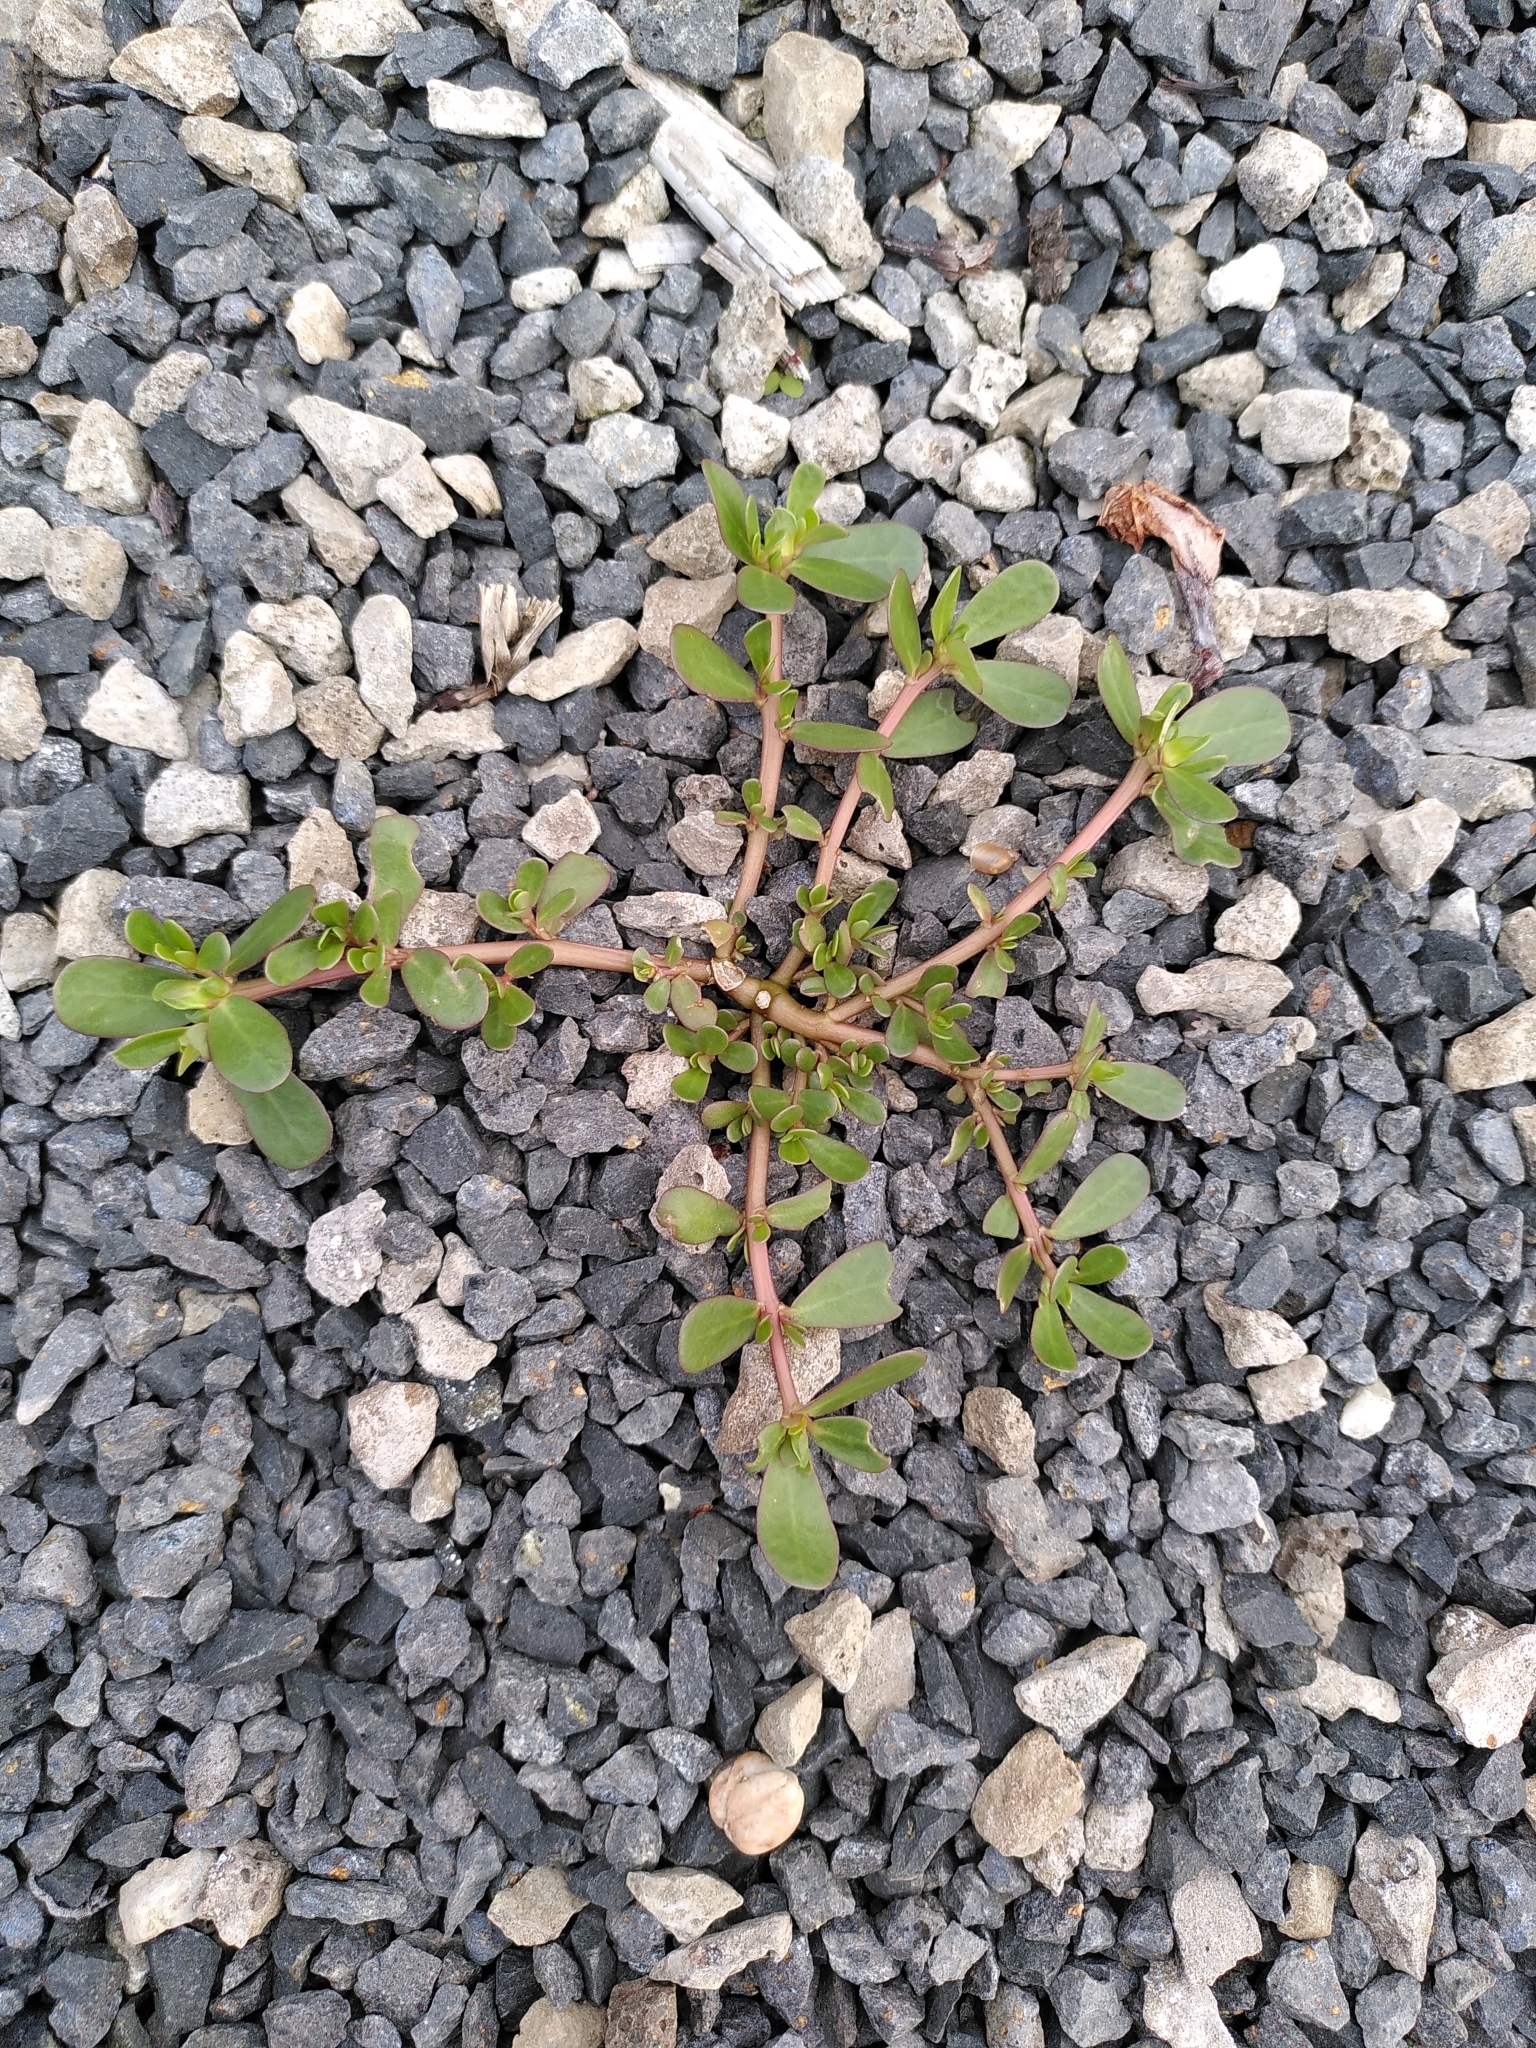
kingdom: Plantae
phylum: Tracheophyta
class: Magnoliopsida
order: Caryophyllales
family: Portulacaceae
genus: Portulaca
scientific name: Portulaca oleracea
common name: Common purslane
